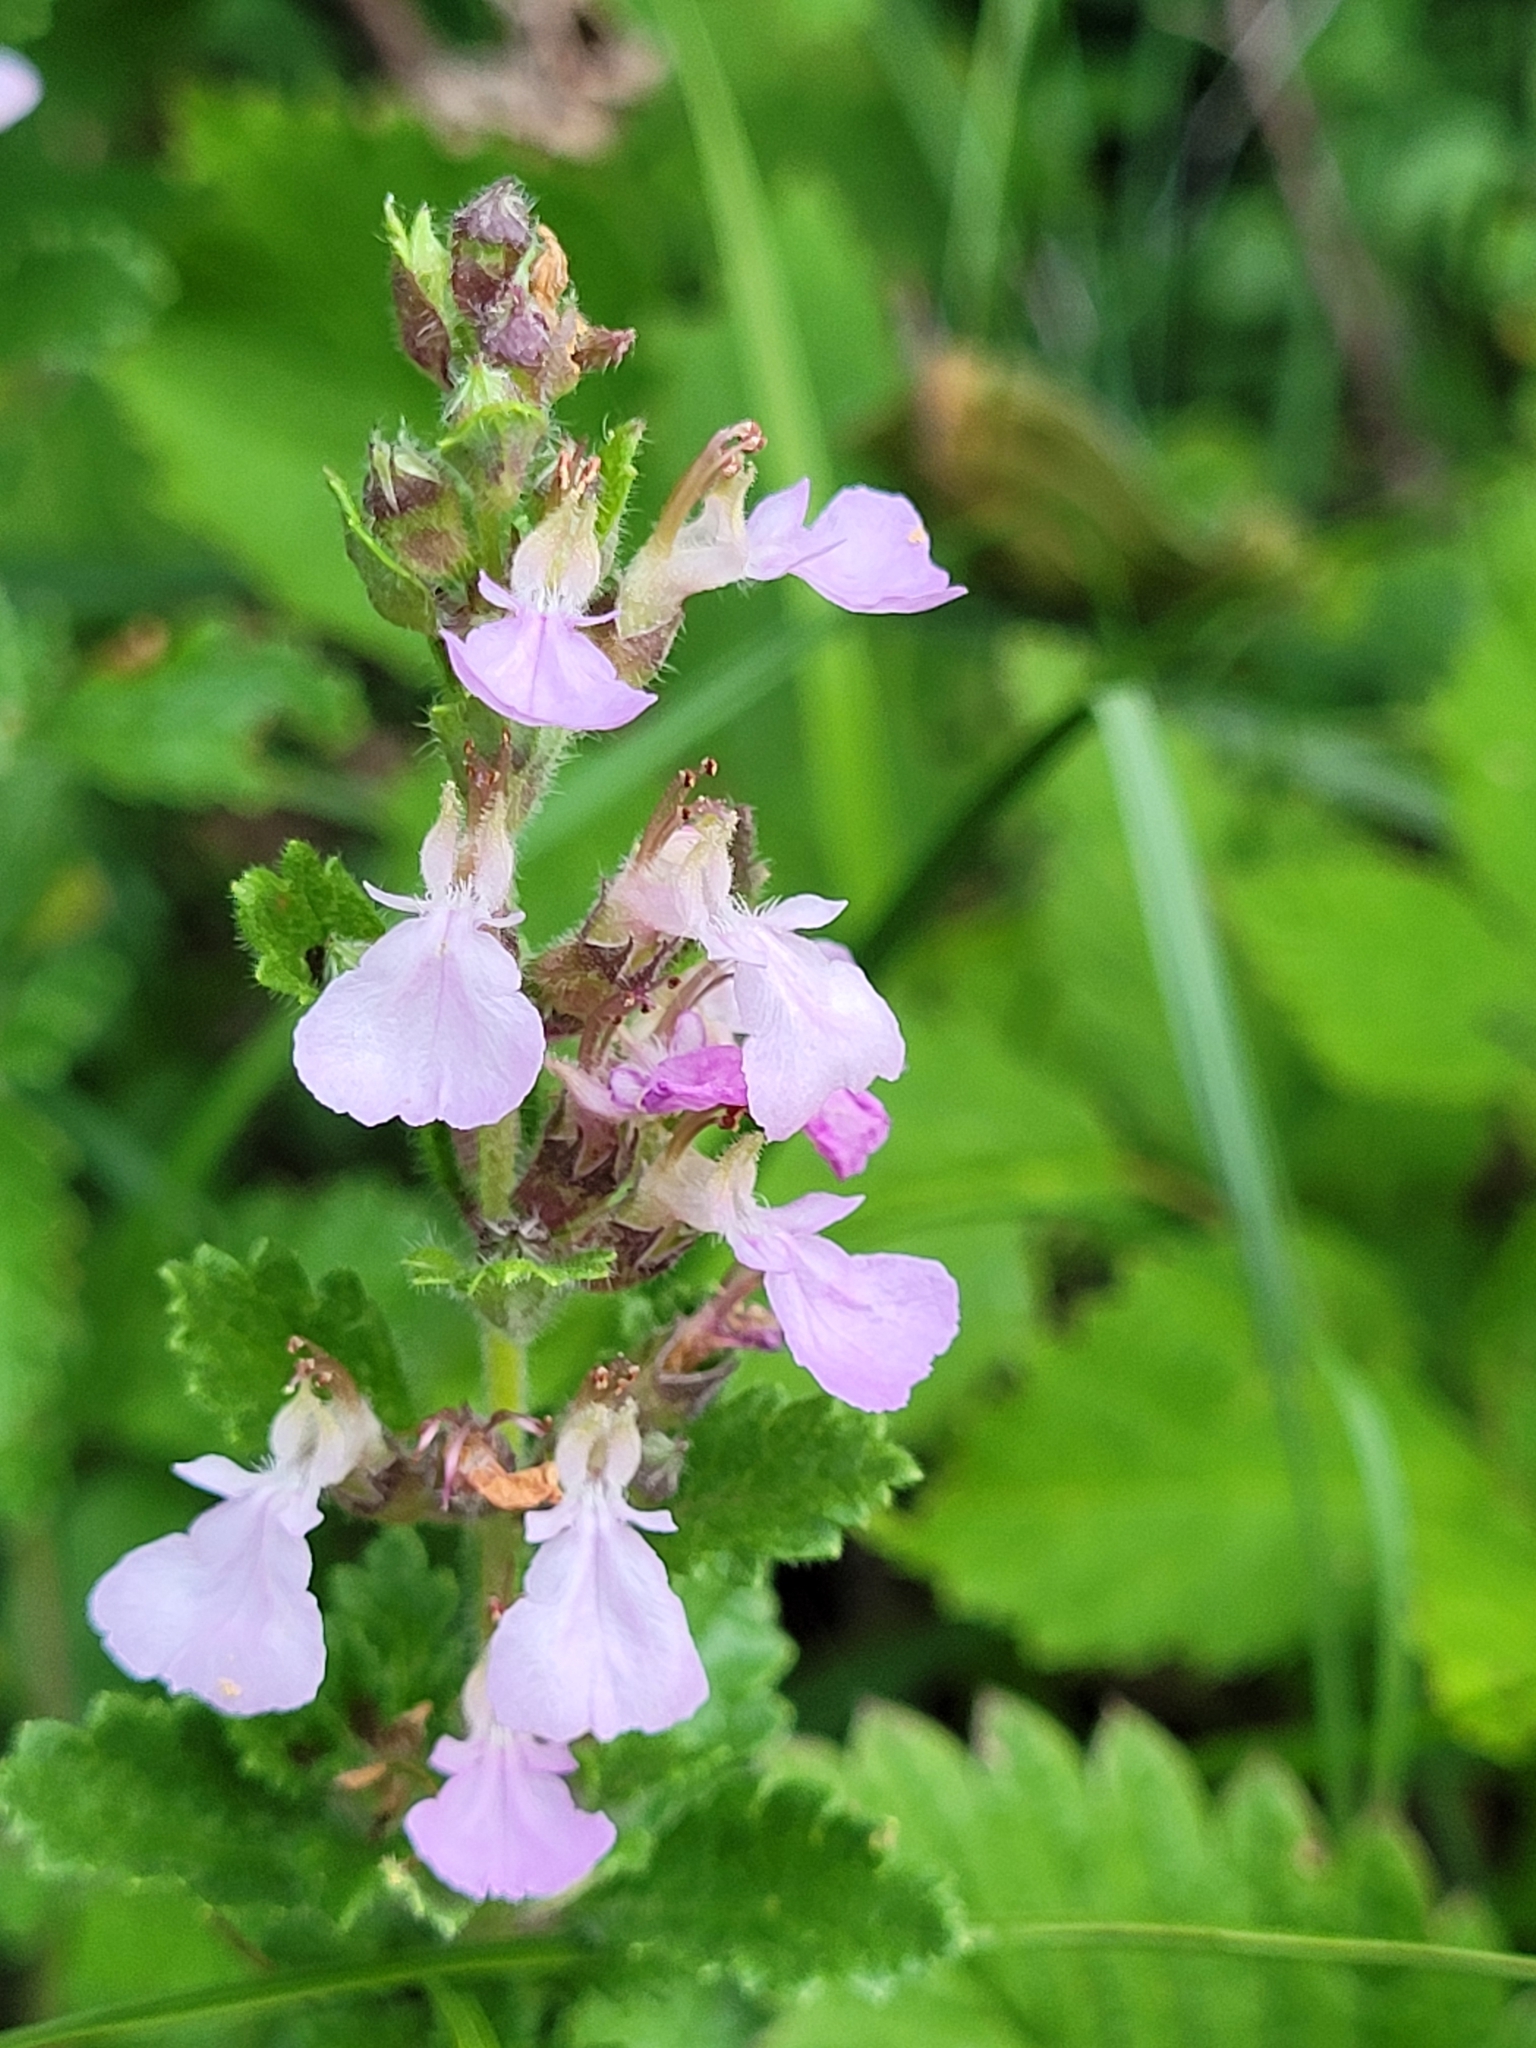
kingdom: Plantae
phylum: Tracheophyta
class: Magnoliopsida
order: Lamiales
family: Lamiaceae
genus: Teucrium
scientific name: Teucrium chamaedrys
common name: Wall germander
